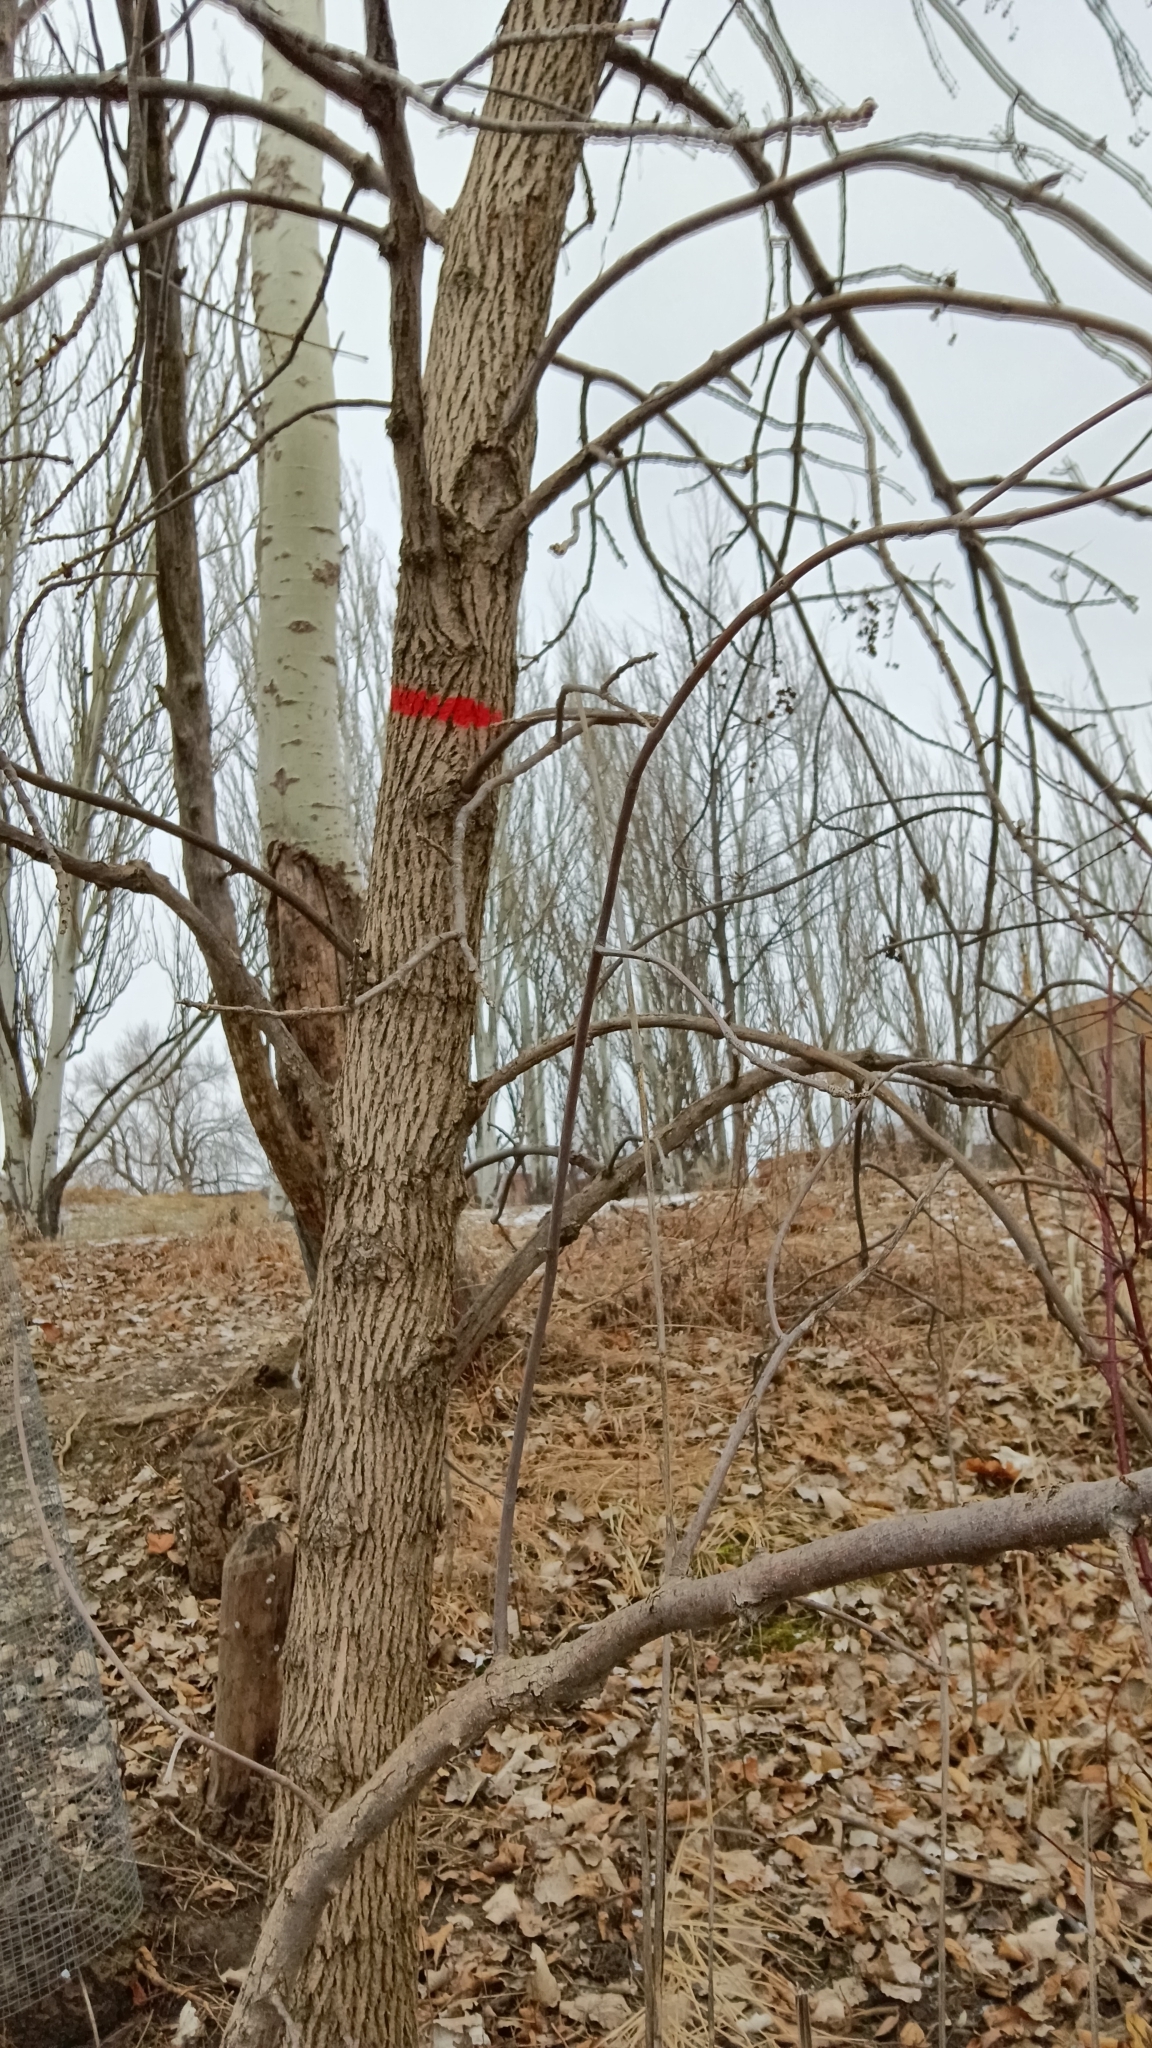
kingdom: Plantae
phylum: Tracheophyta
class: Magnoliopsida
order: Lamiales
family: Oleaceae
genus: Fraxinus
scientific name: Fraxinus pennsylvanica
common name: Green ash
